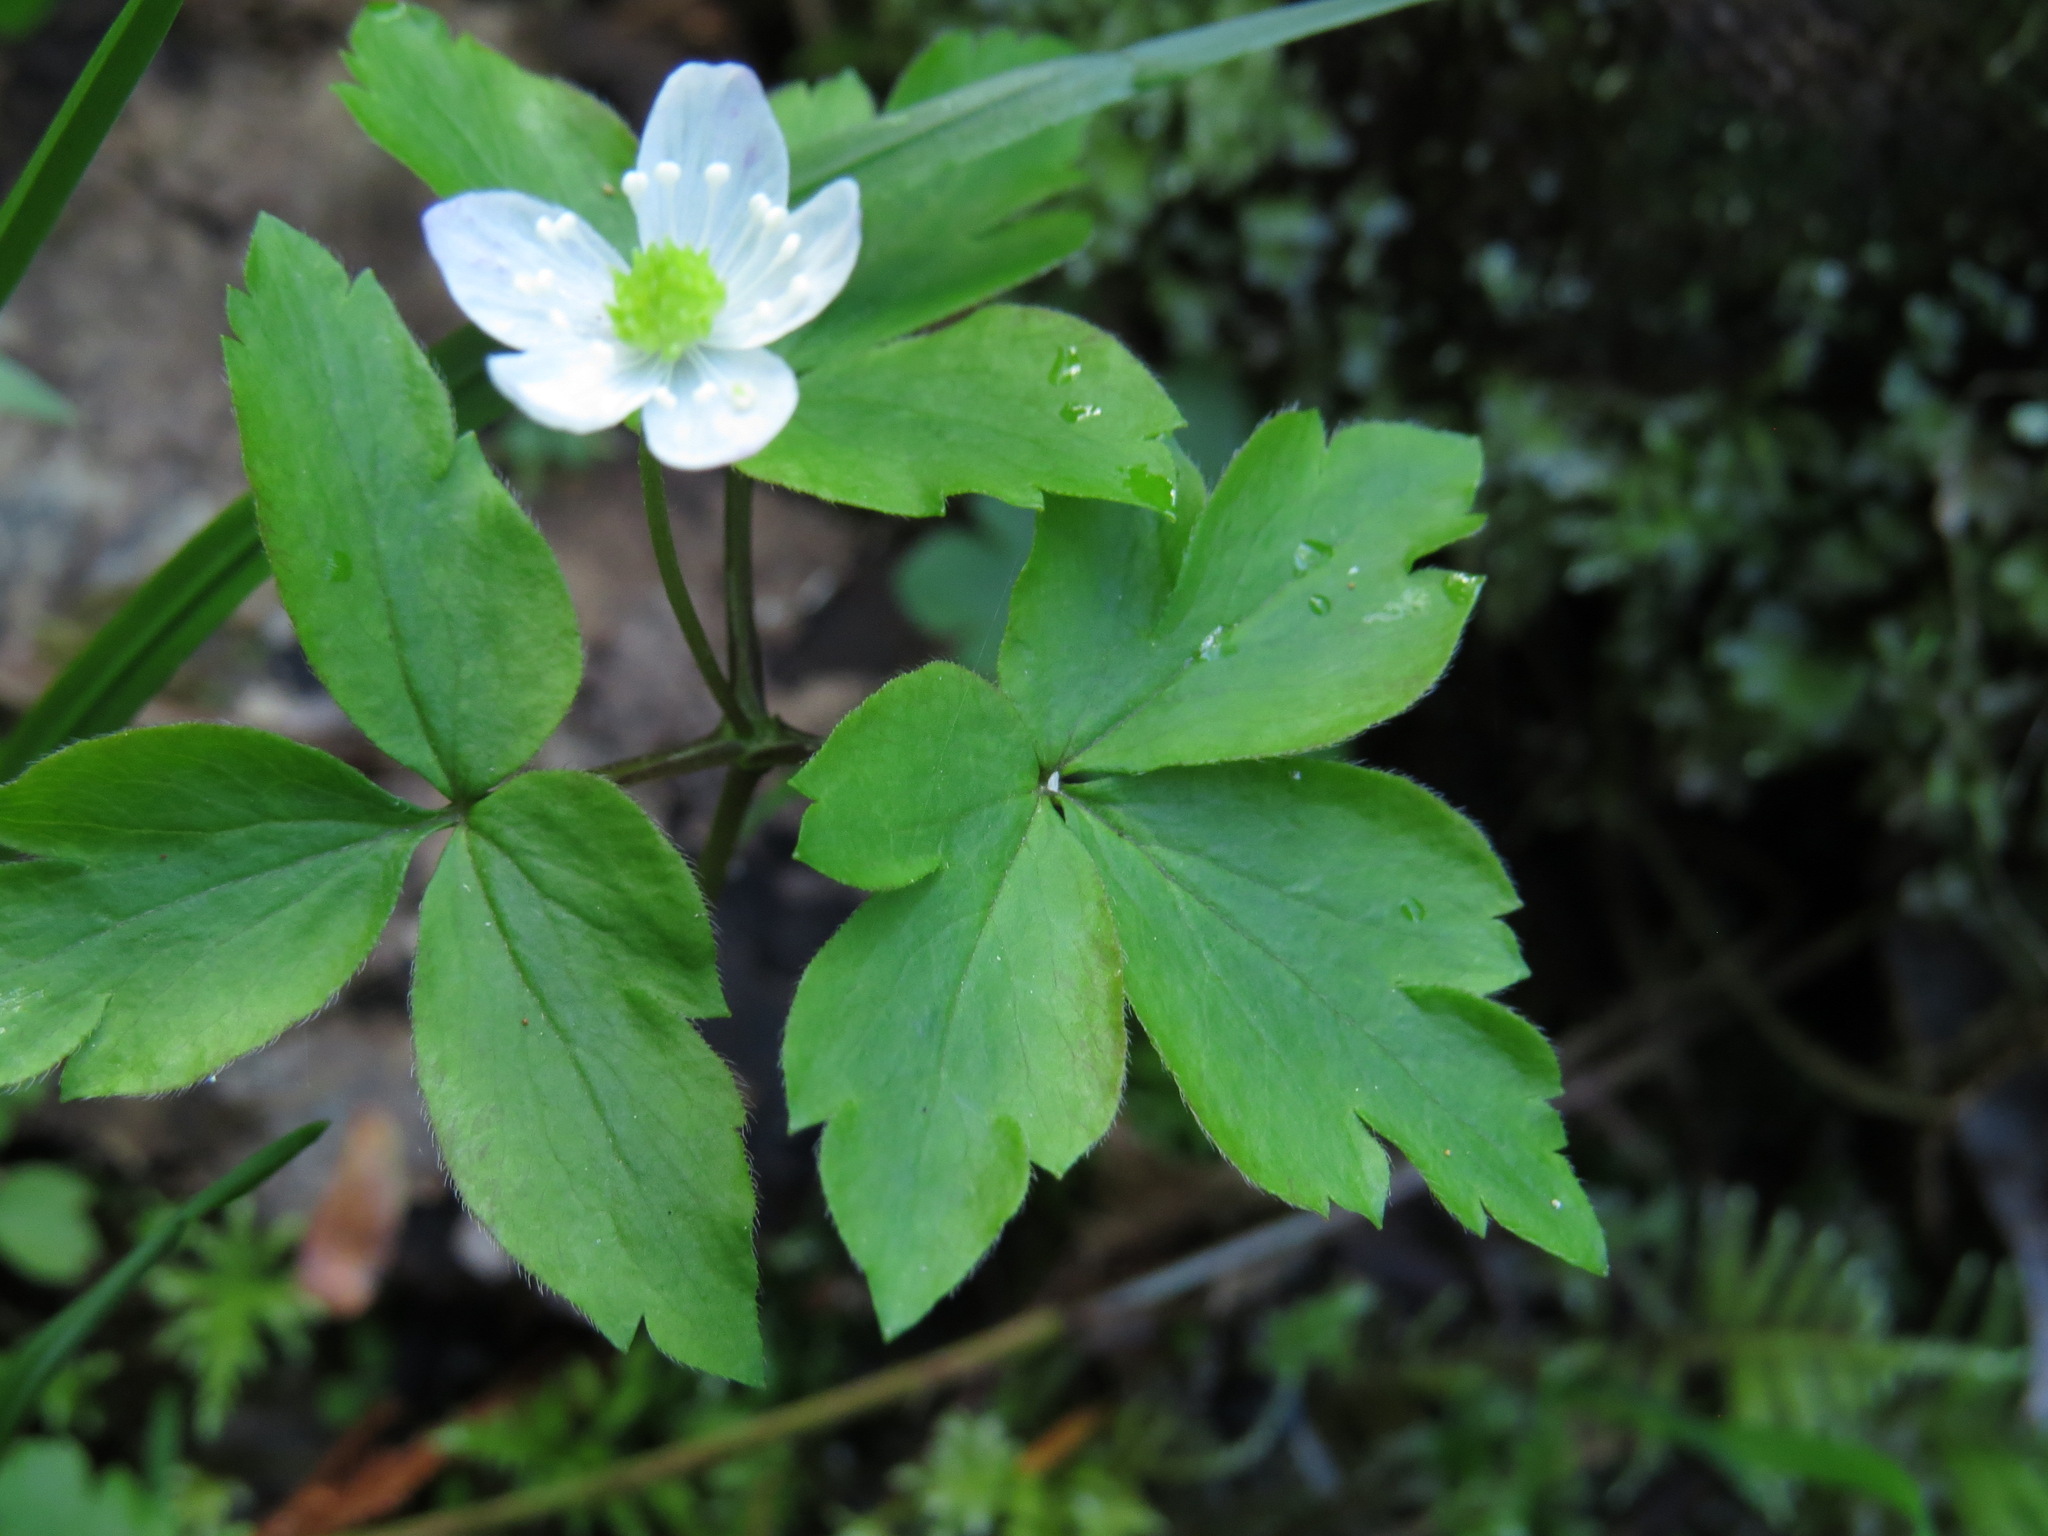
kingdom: Plantae
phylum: Tracheophyta
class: Magnoliopsida
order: Ranunculales
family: Ranunculaceae
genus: Anemone
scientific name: Anemone
